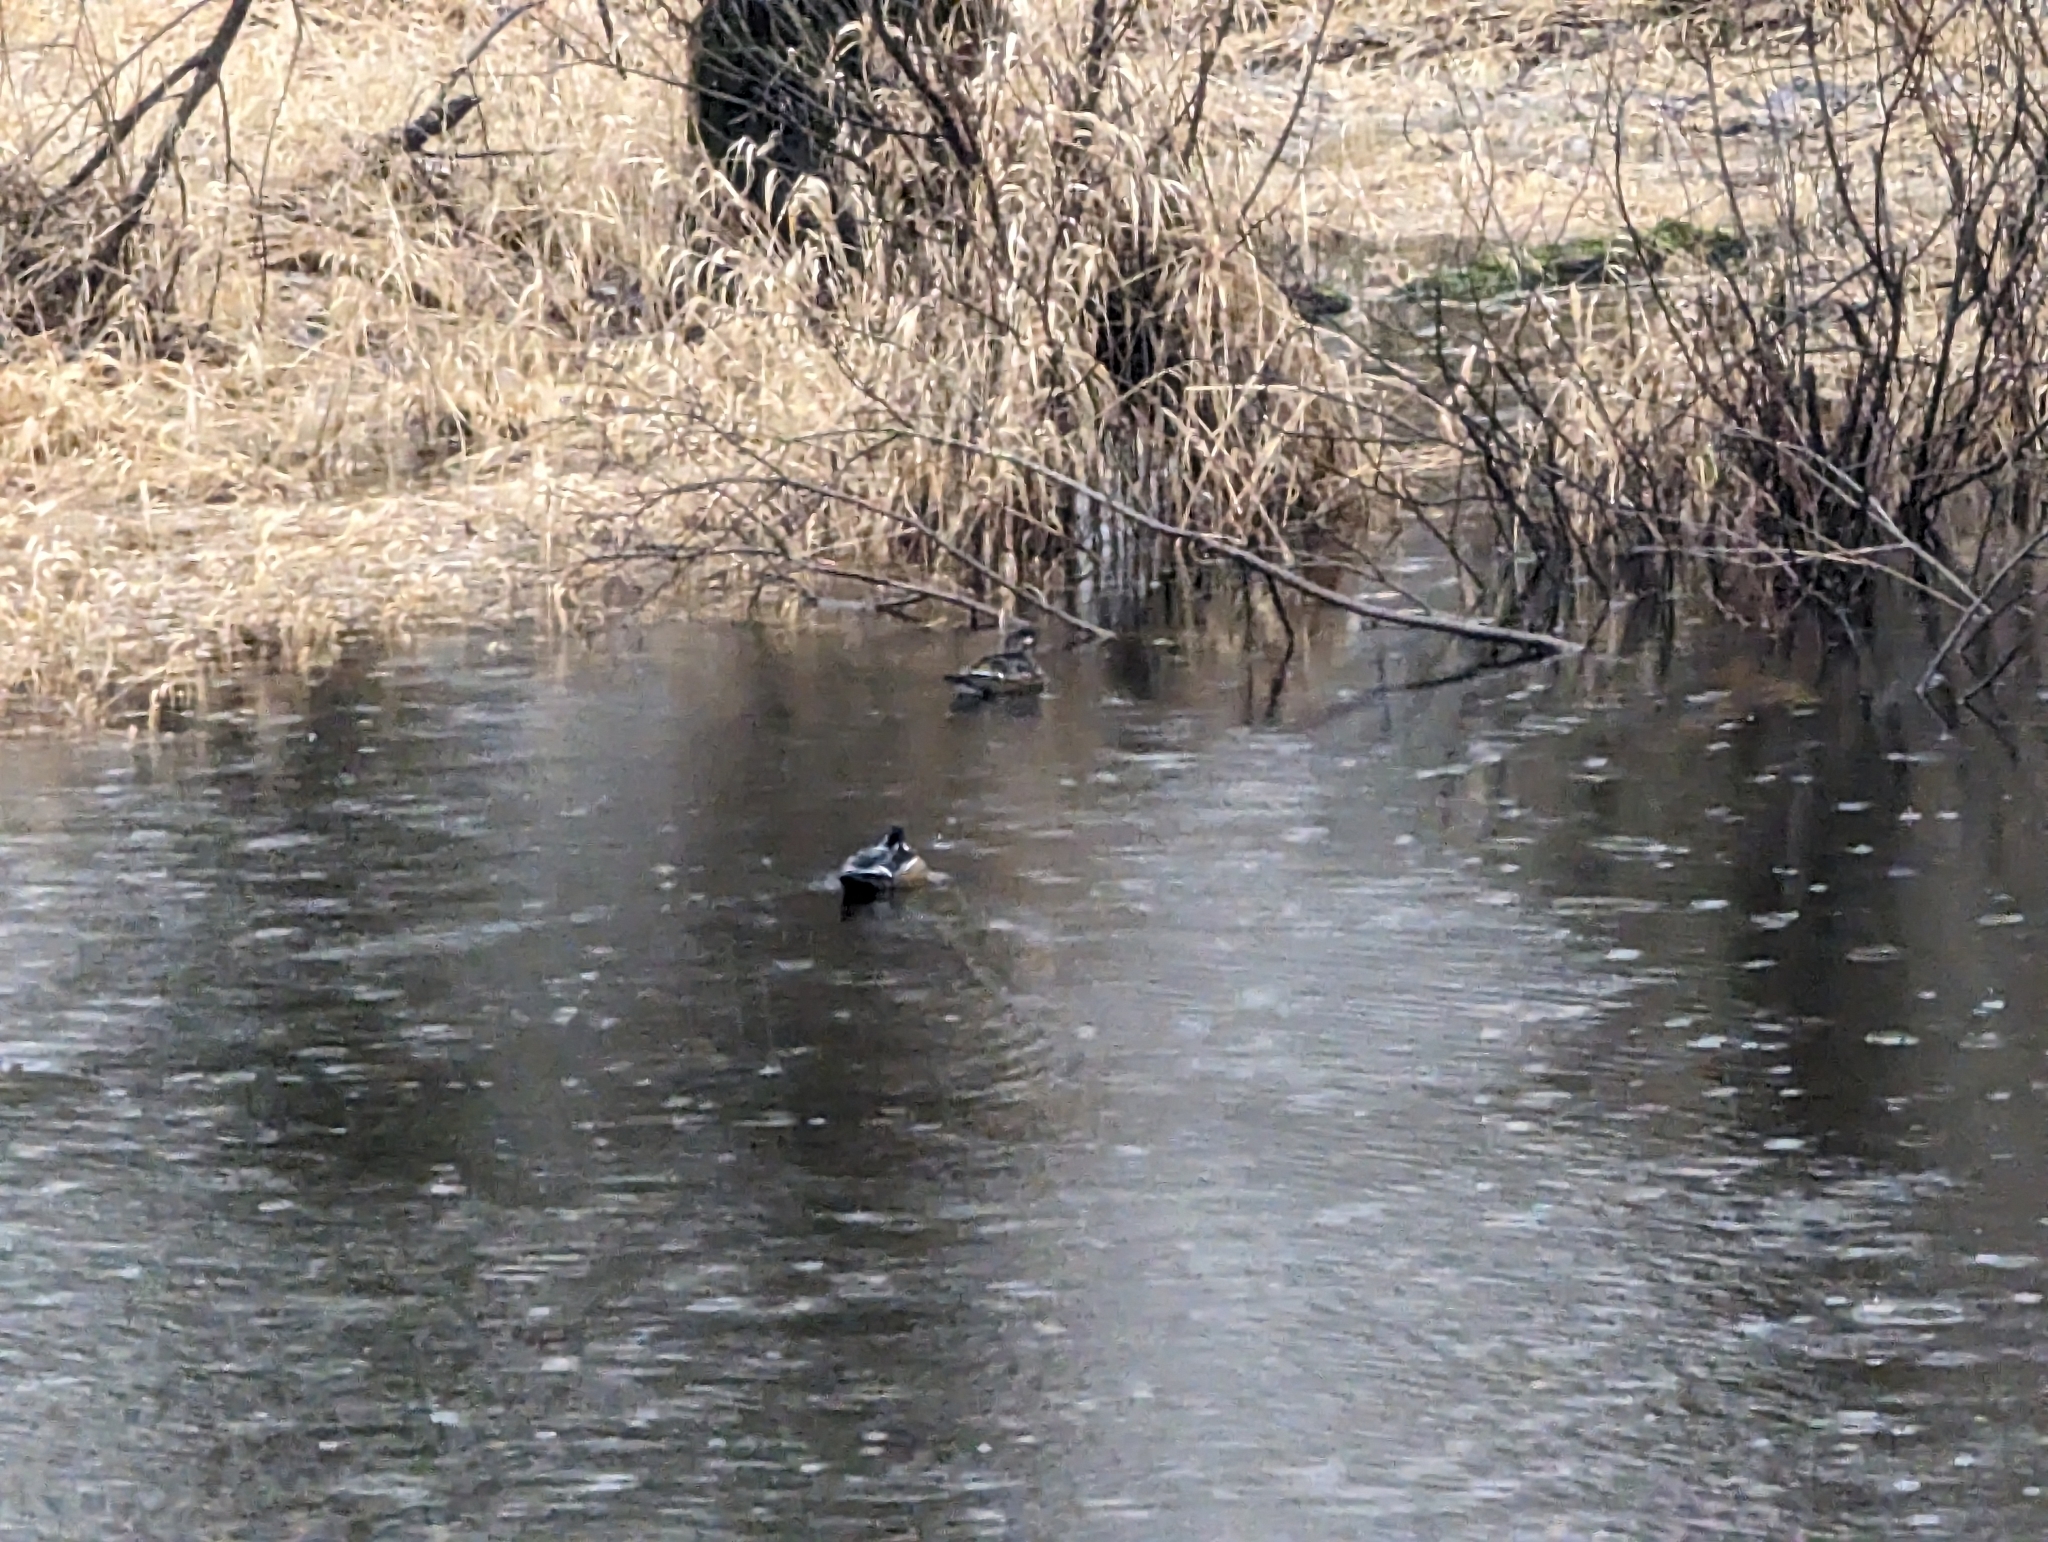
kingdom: Animalia
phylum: Chordata
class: Aves
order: Anseriformes
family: Anatidae
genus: Aix
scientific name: Aix sponsa
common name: Wood duck
